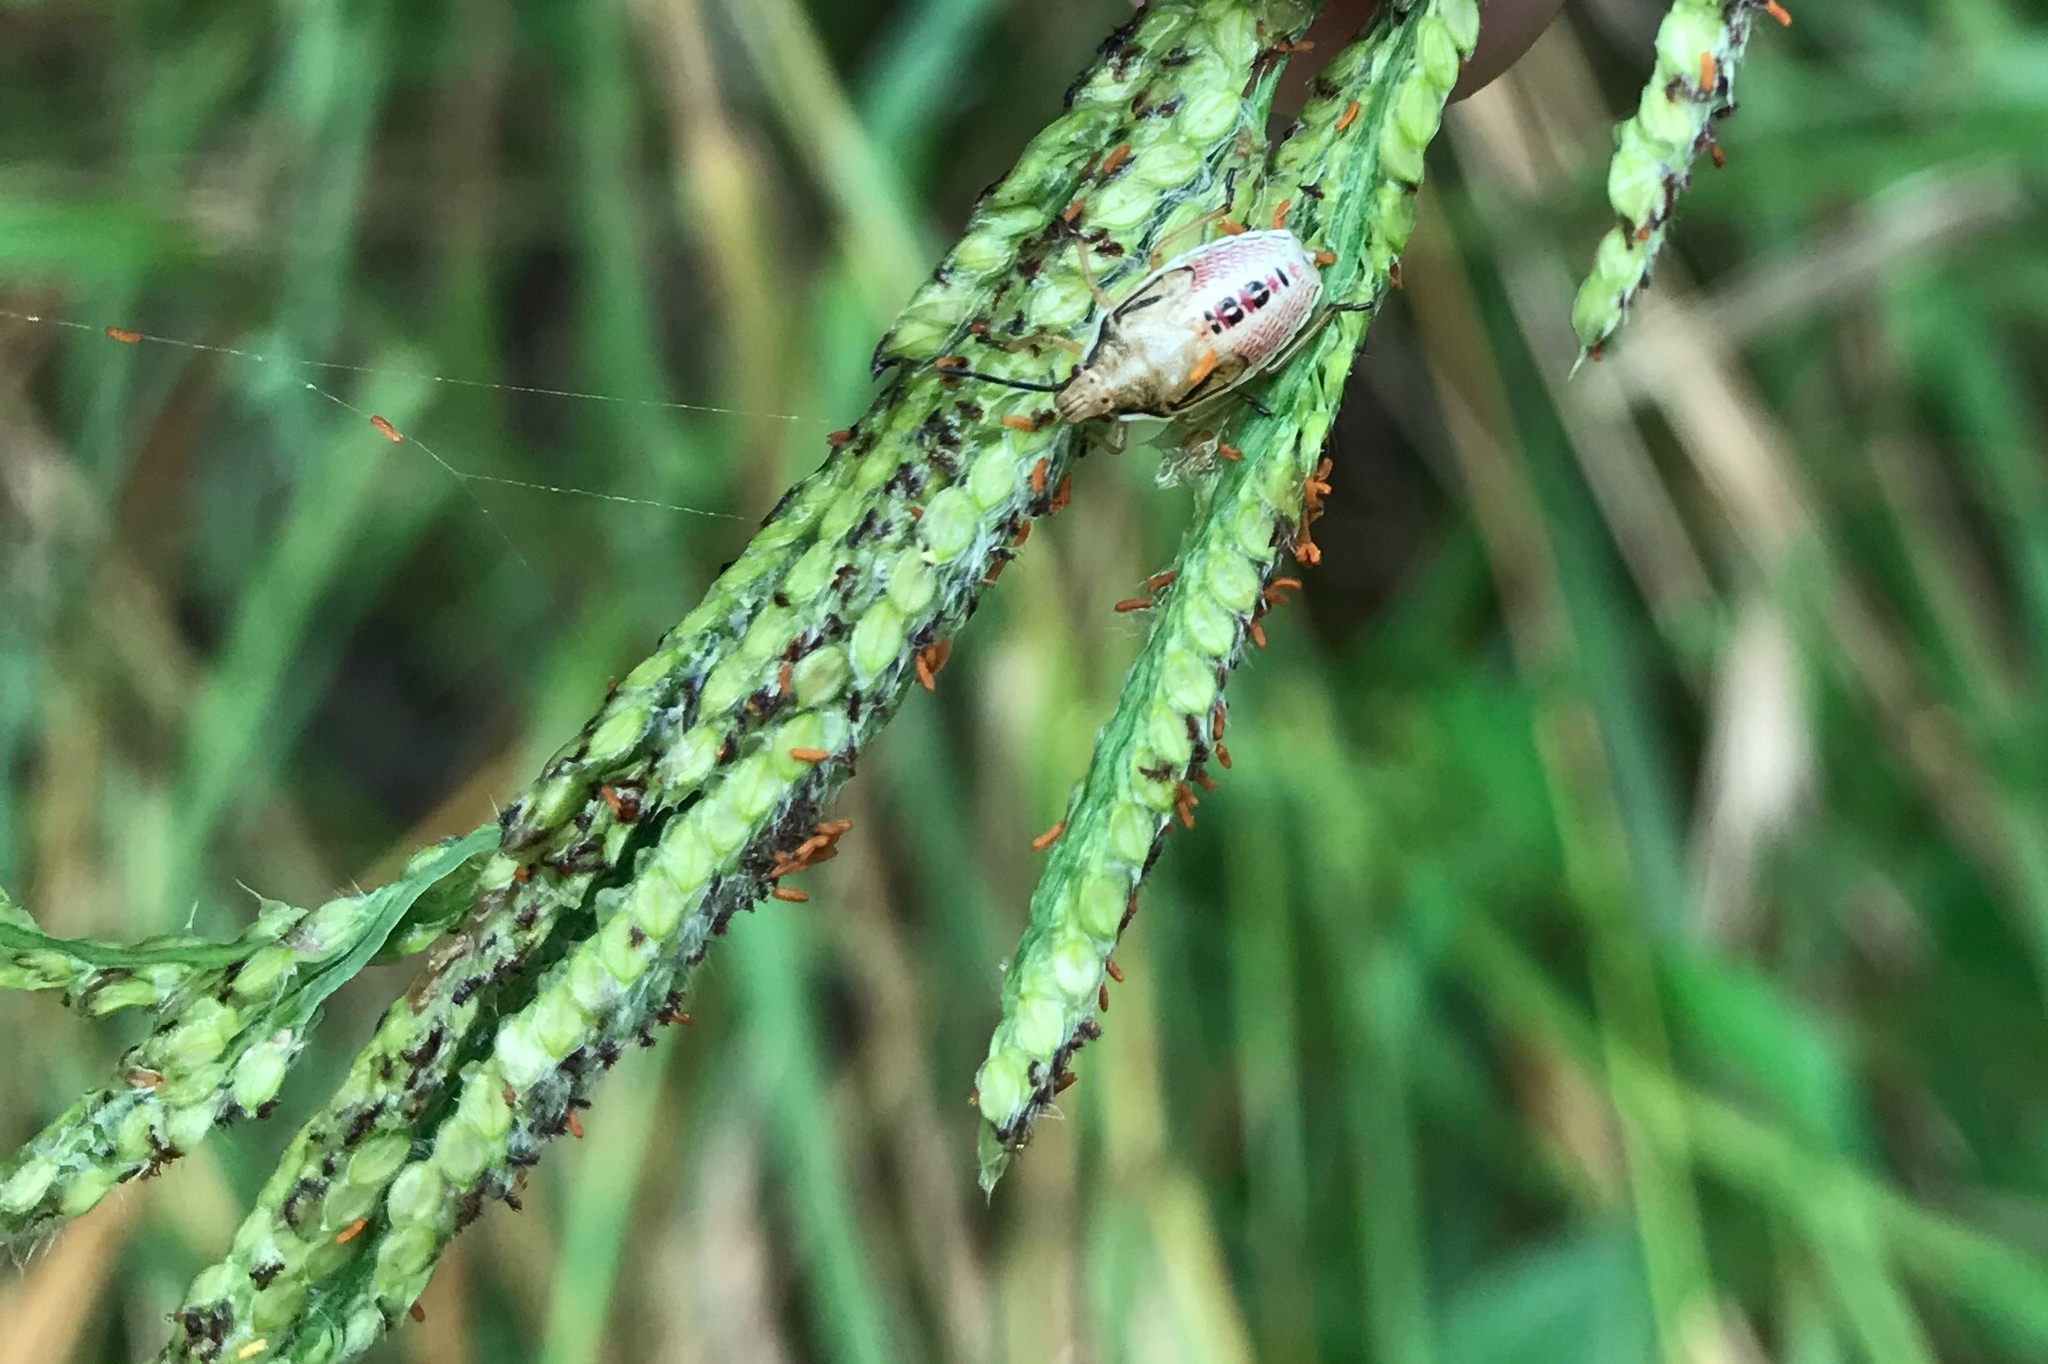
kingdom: Animalia
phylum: Arthropoda
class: Insecta
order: Hemiptera
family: Pentatomidae
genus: Oebalus
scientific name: Oebalus pugnax
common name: Rice stink bug
